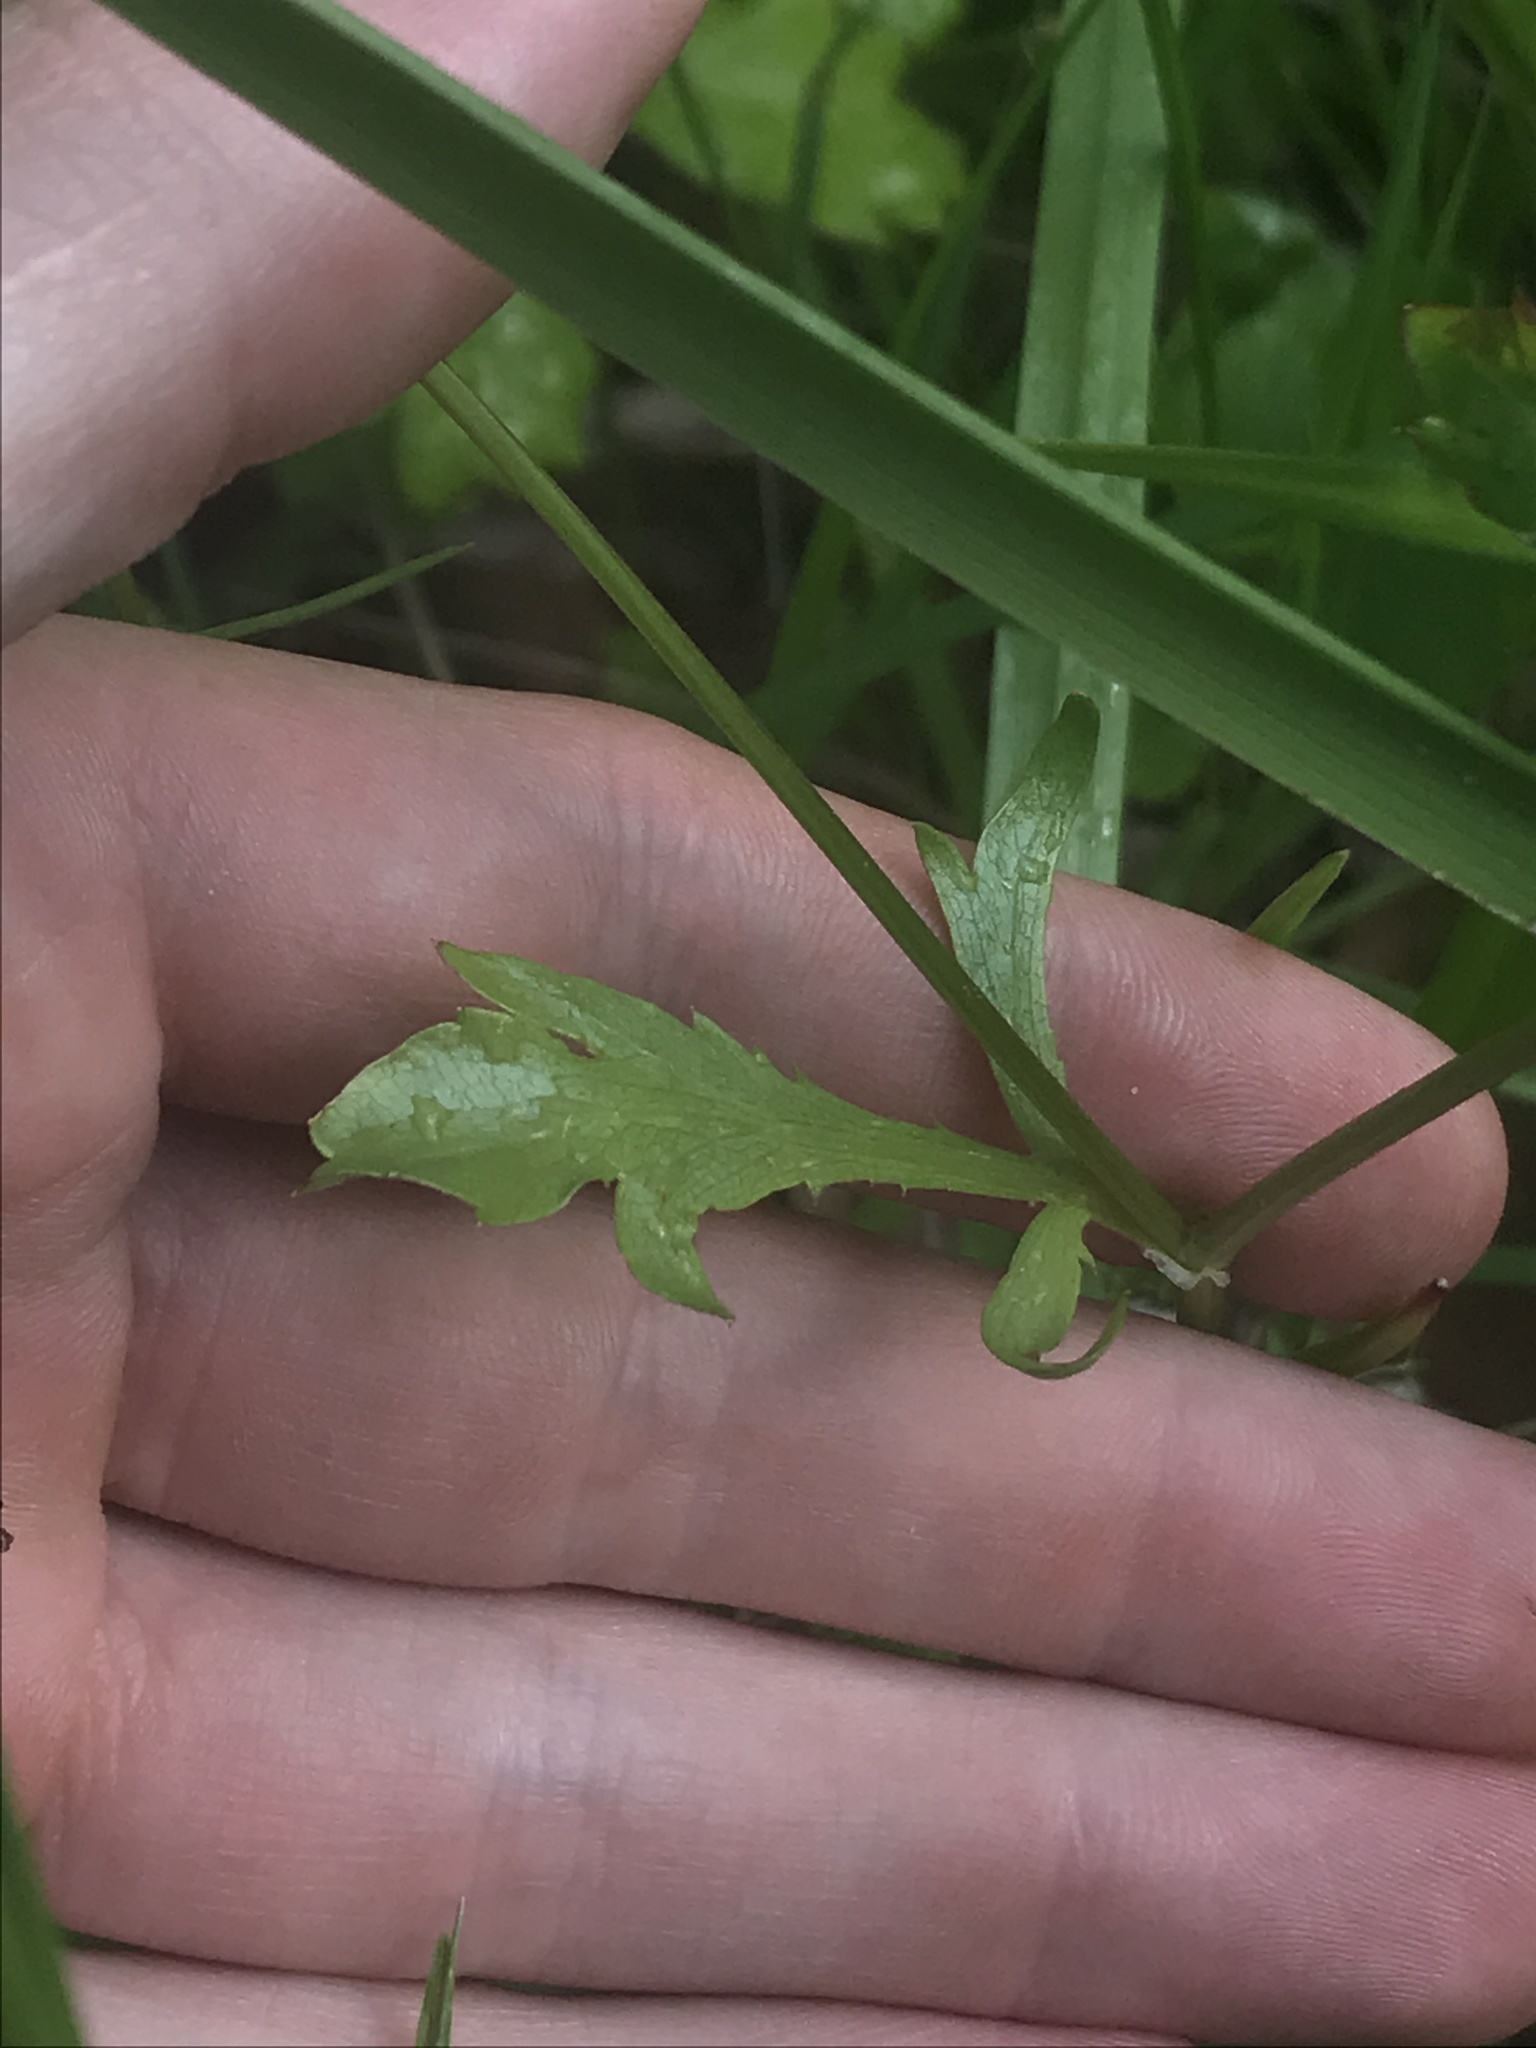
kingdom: Plantae
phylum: Tracheophyta
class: Magnoliopsida
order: Apiales
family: Apiaceae
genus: Sanicula
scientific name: Sanicula bipinnatifida
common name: Shoe-buttons
